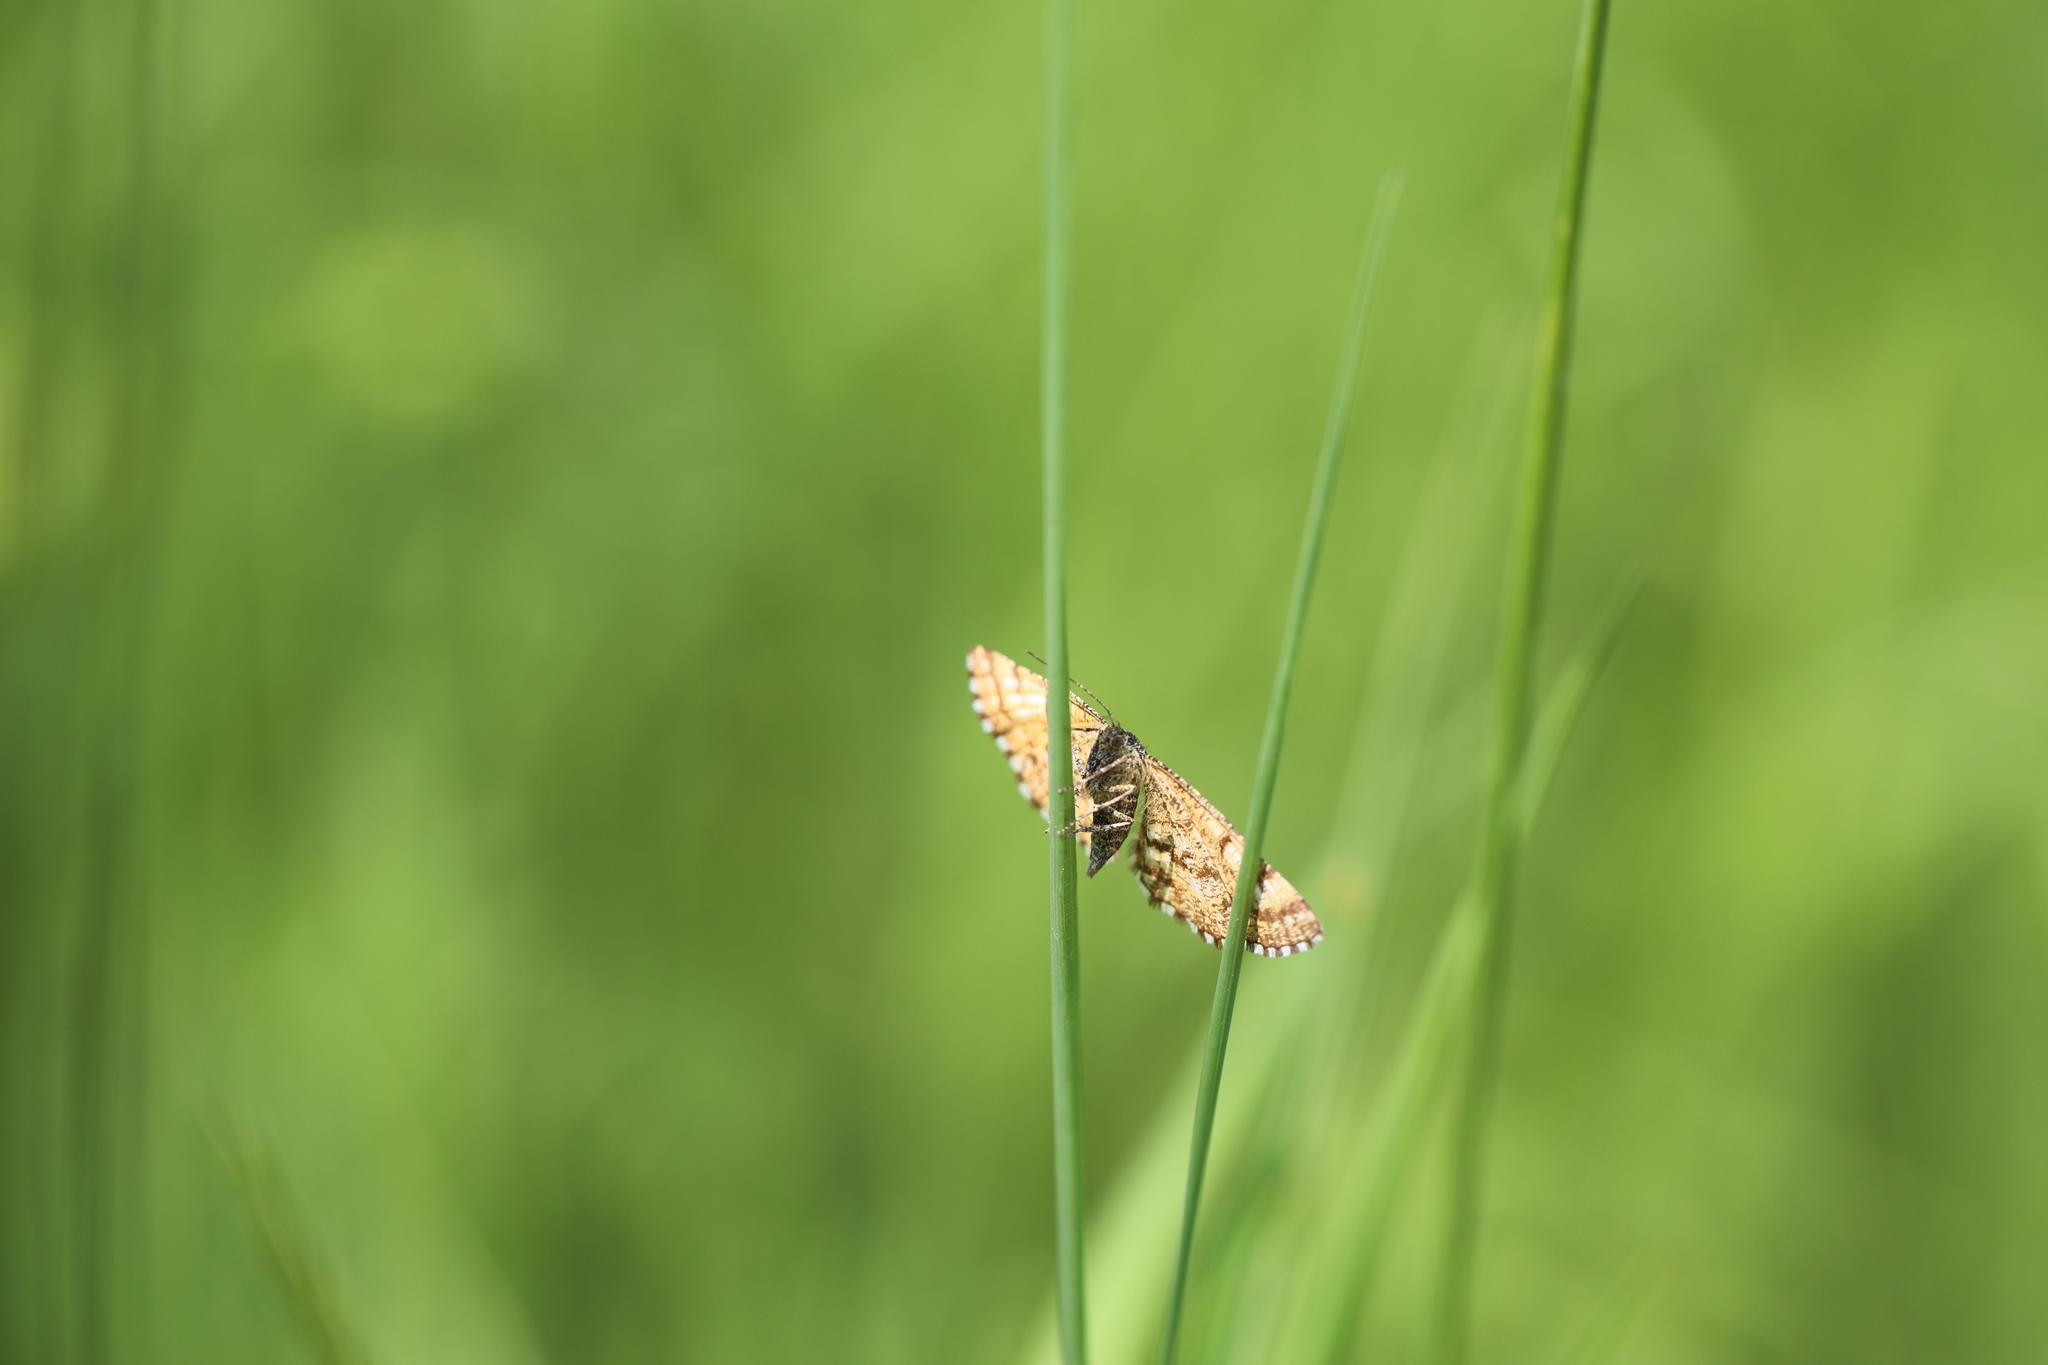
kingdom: Animalia
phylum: Arthropoda
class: Insecta
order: Lepidoptera
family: Geometridae
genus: Ematurga
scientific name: Ematurga atomaria
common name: Common heath
